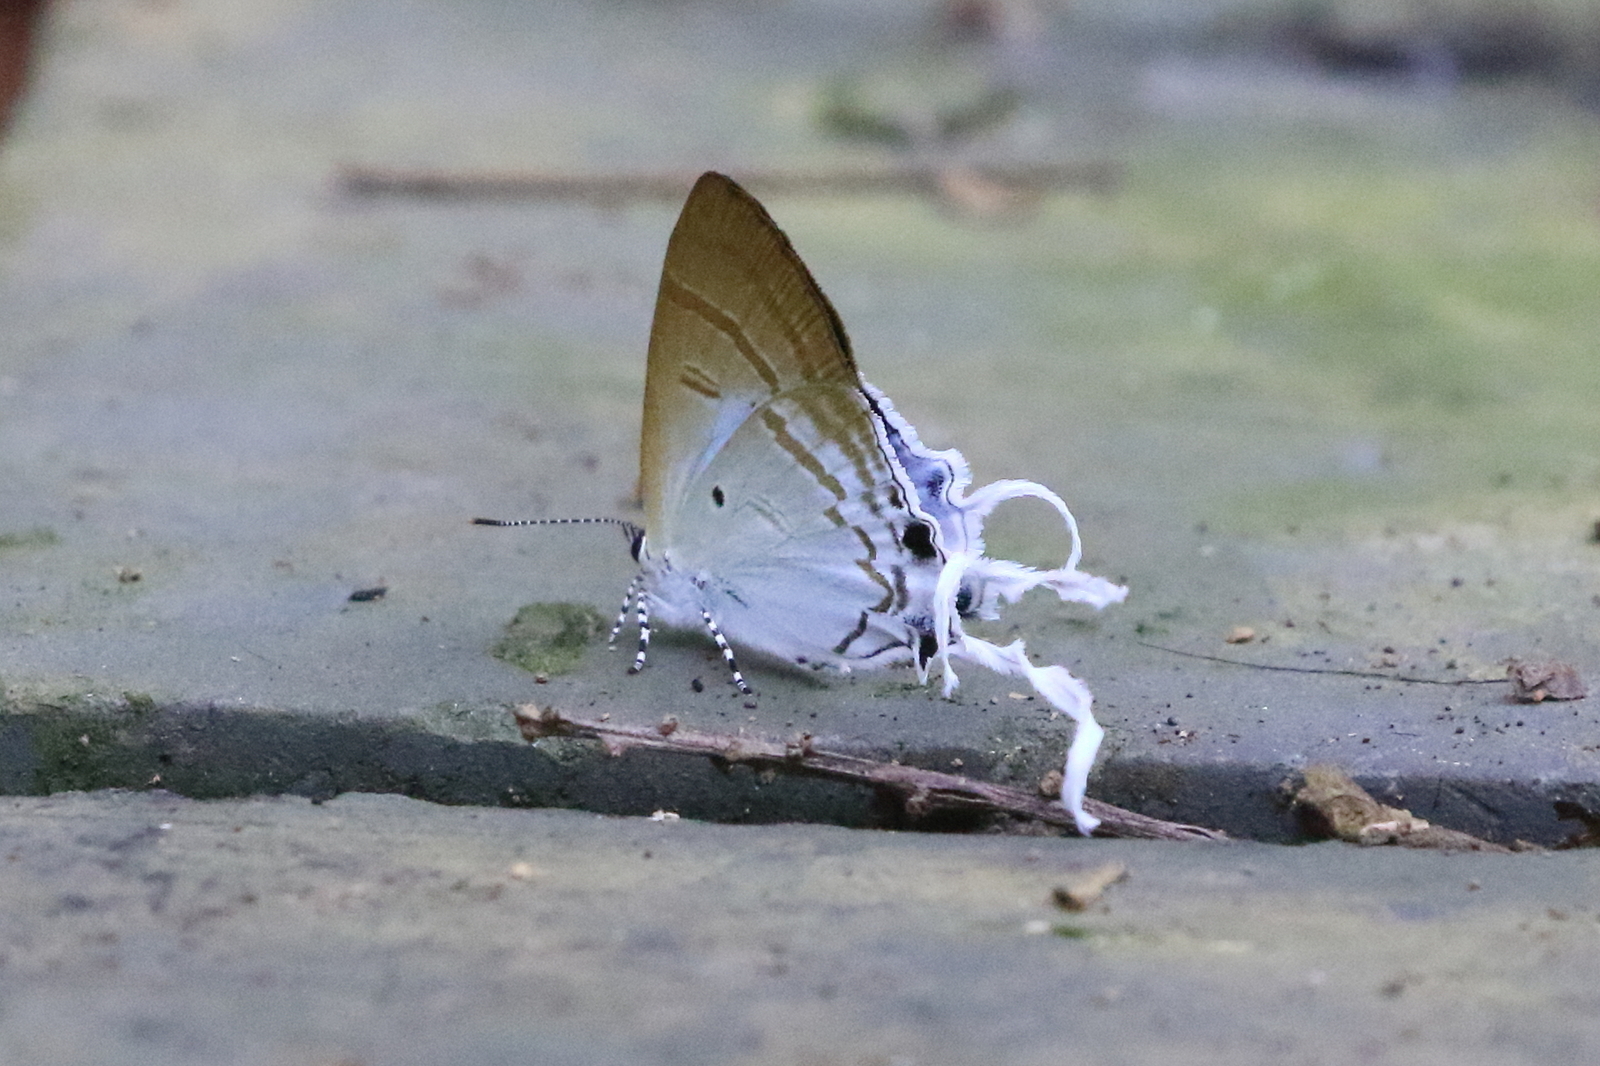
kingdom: Animalia
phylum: Arthropoda
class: Insecta
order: Lepidoptera
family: Lycaenidae
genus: Zeltus
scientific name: Zeltus amasa
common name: Fluffy tit
